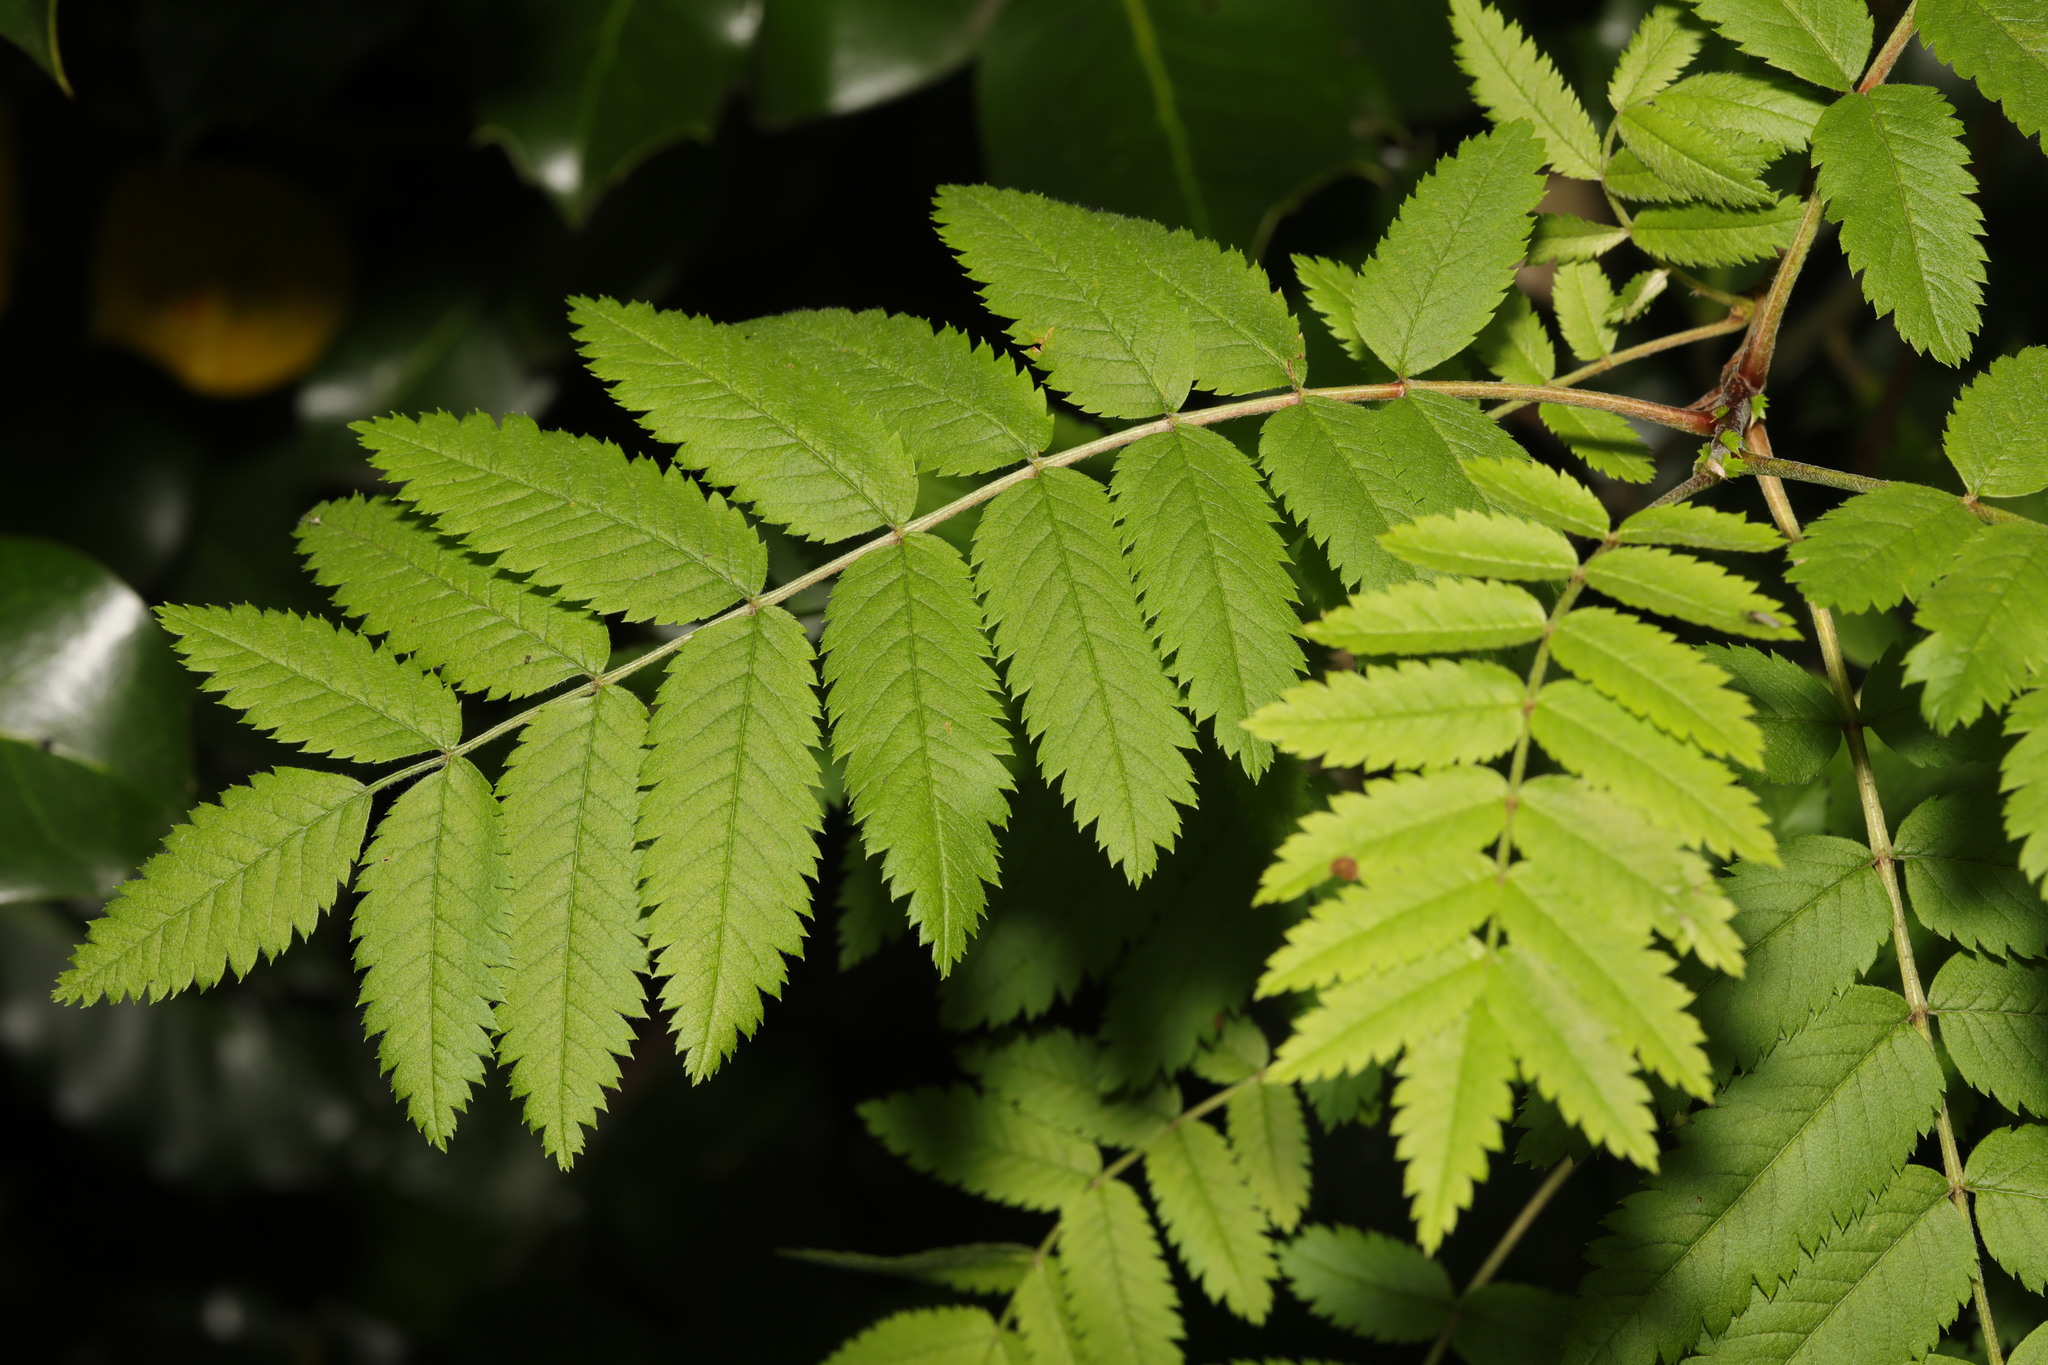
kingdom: Plantae
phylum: Tracheophyta
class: Magnoliopsida
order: Rosales
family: Rosaceae
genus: Sorbus
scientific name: Sorbus aucuparia
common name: Rowan
